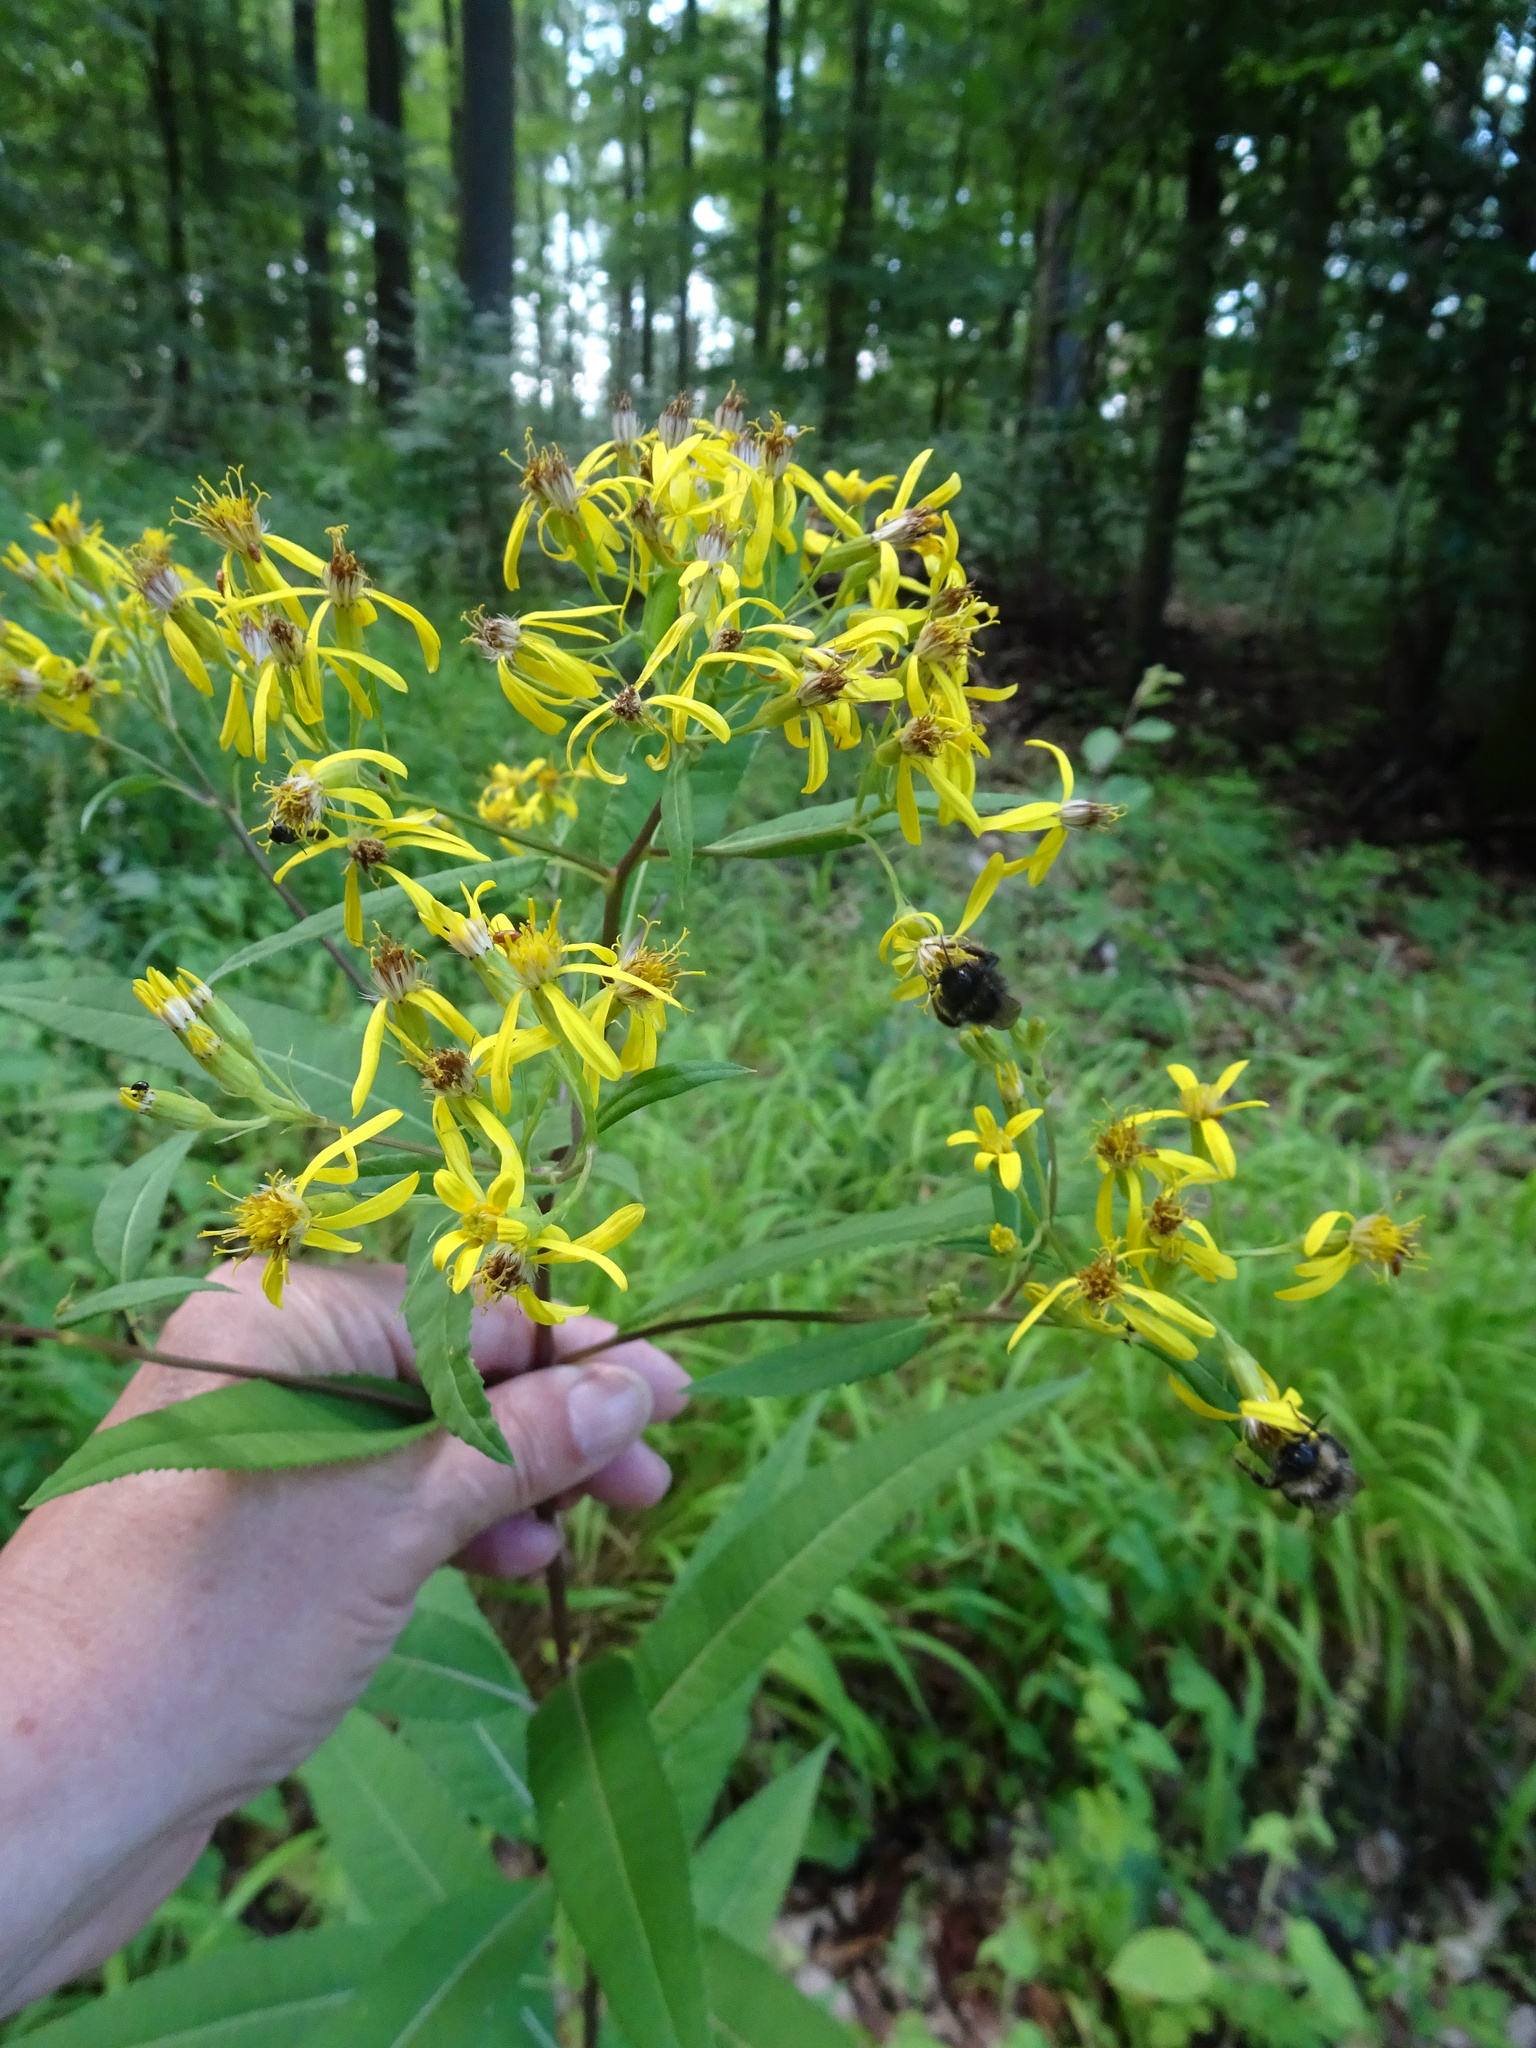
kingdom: Plantae
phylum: Tracheophyta
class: Magnoliopsida
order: Asterales
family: Asteraceae
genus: Senecio
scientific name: Senecio ovatus
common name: Wood ragwort
